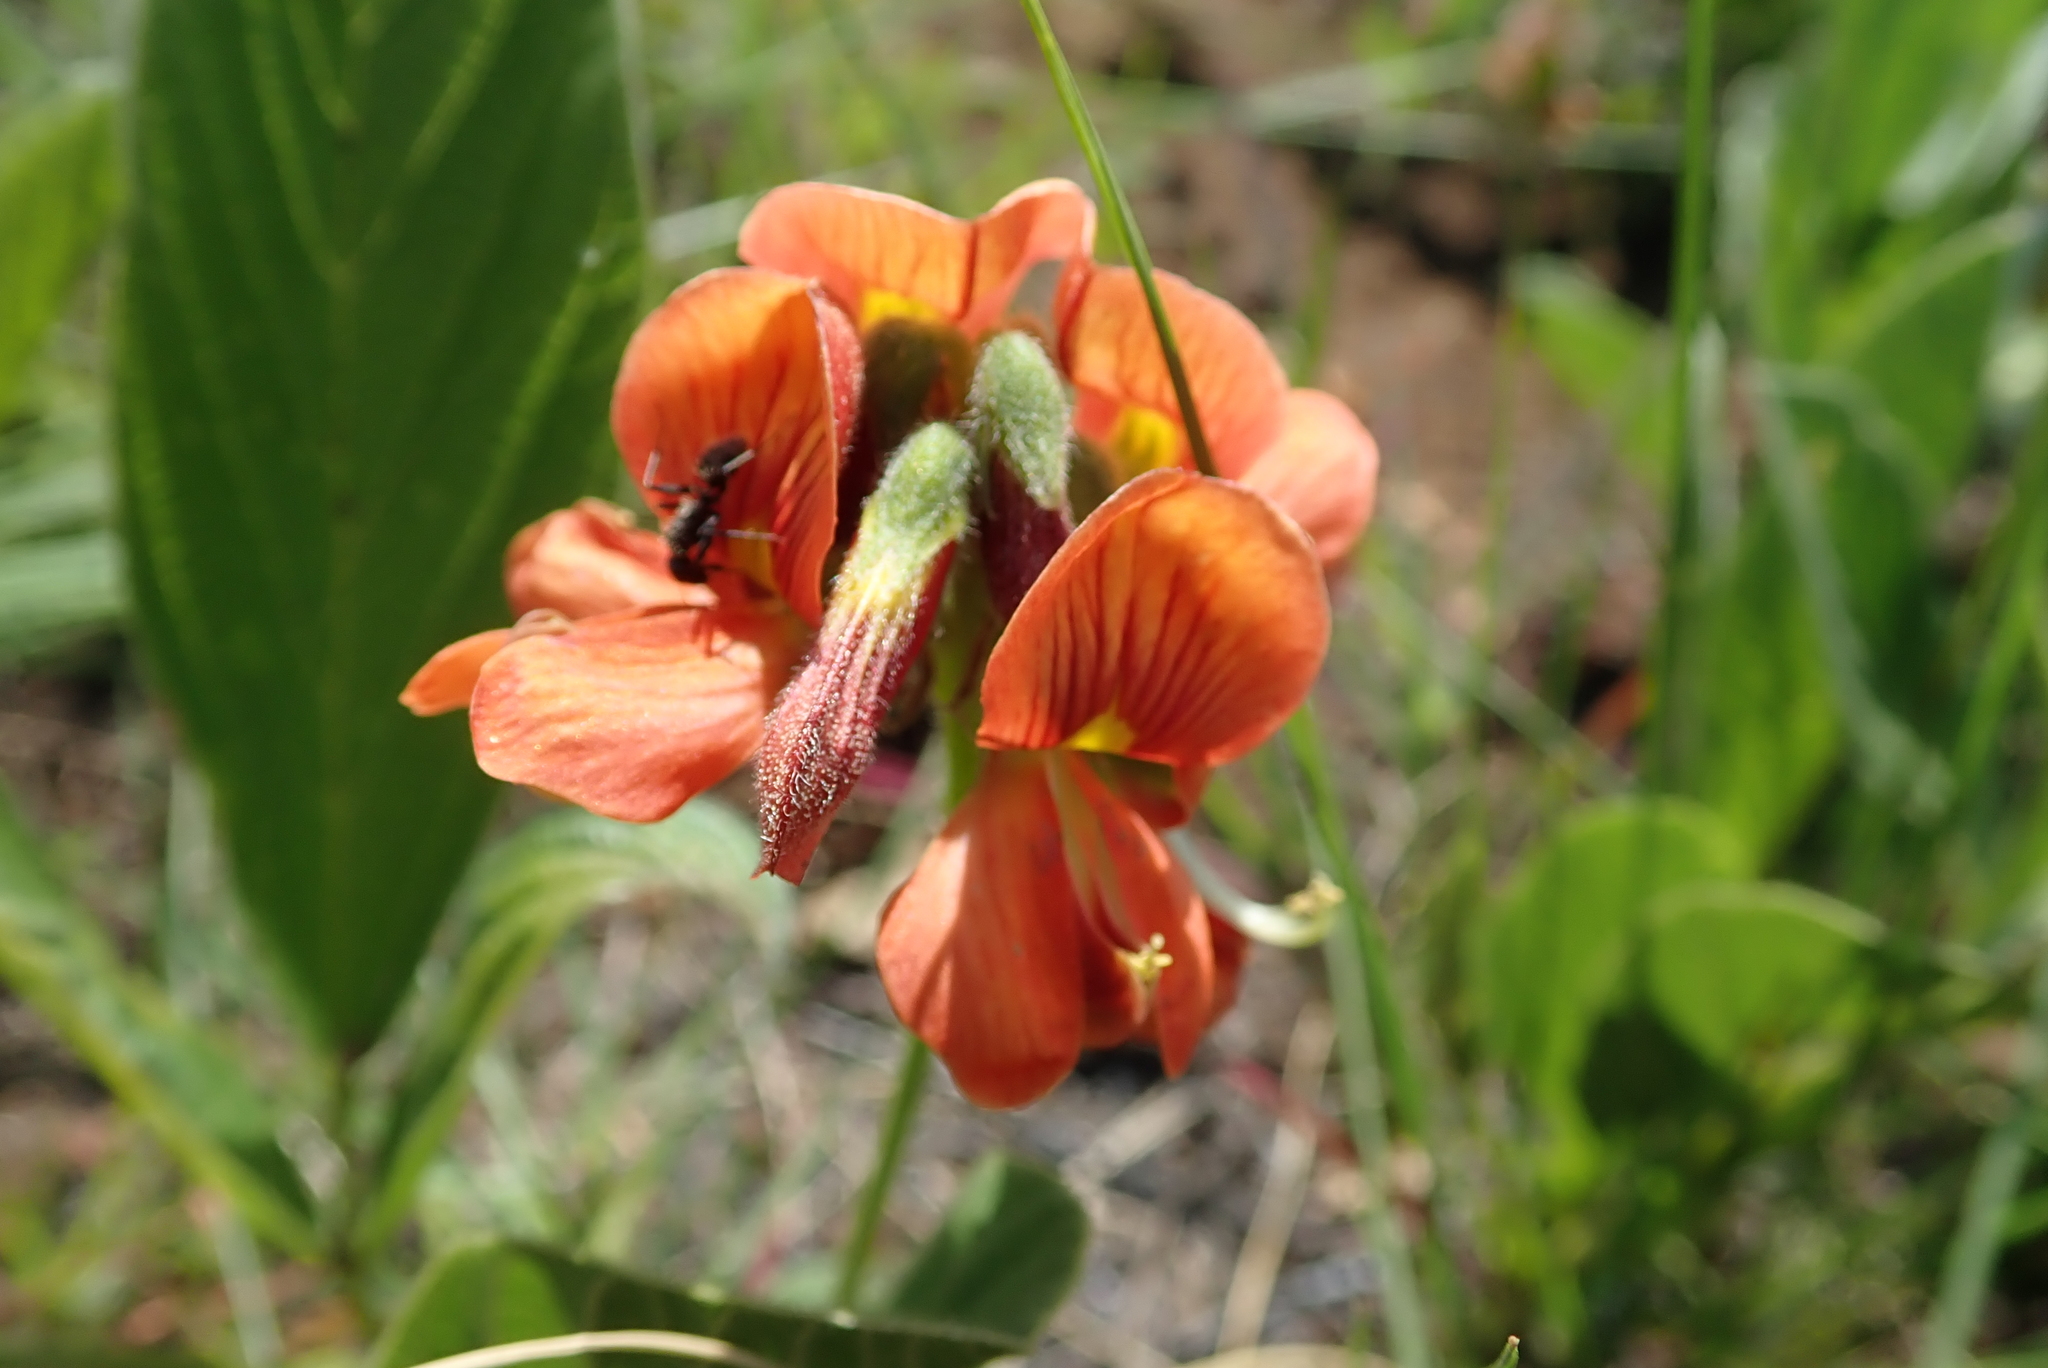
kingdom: Plantae
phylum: Tracheophyta
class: Magnoliopsida
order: Fabales
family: Fabaceae
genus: Eriosema
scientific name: Eriosema distinctum
